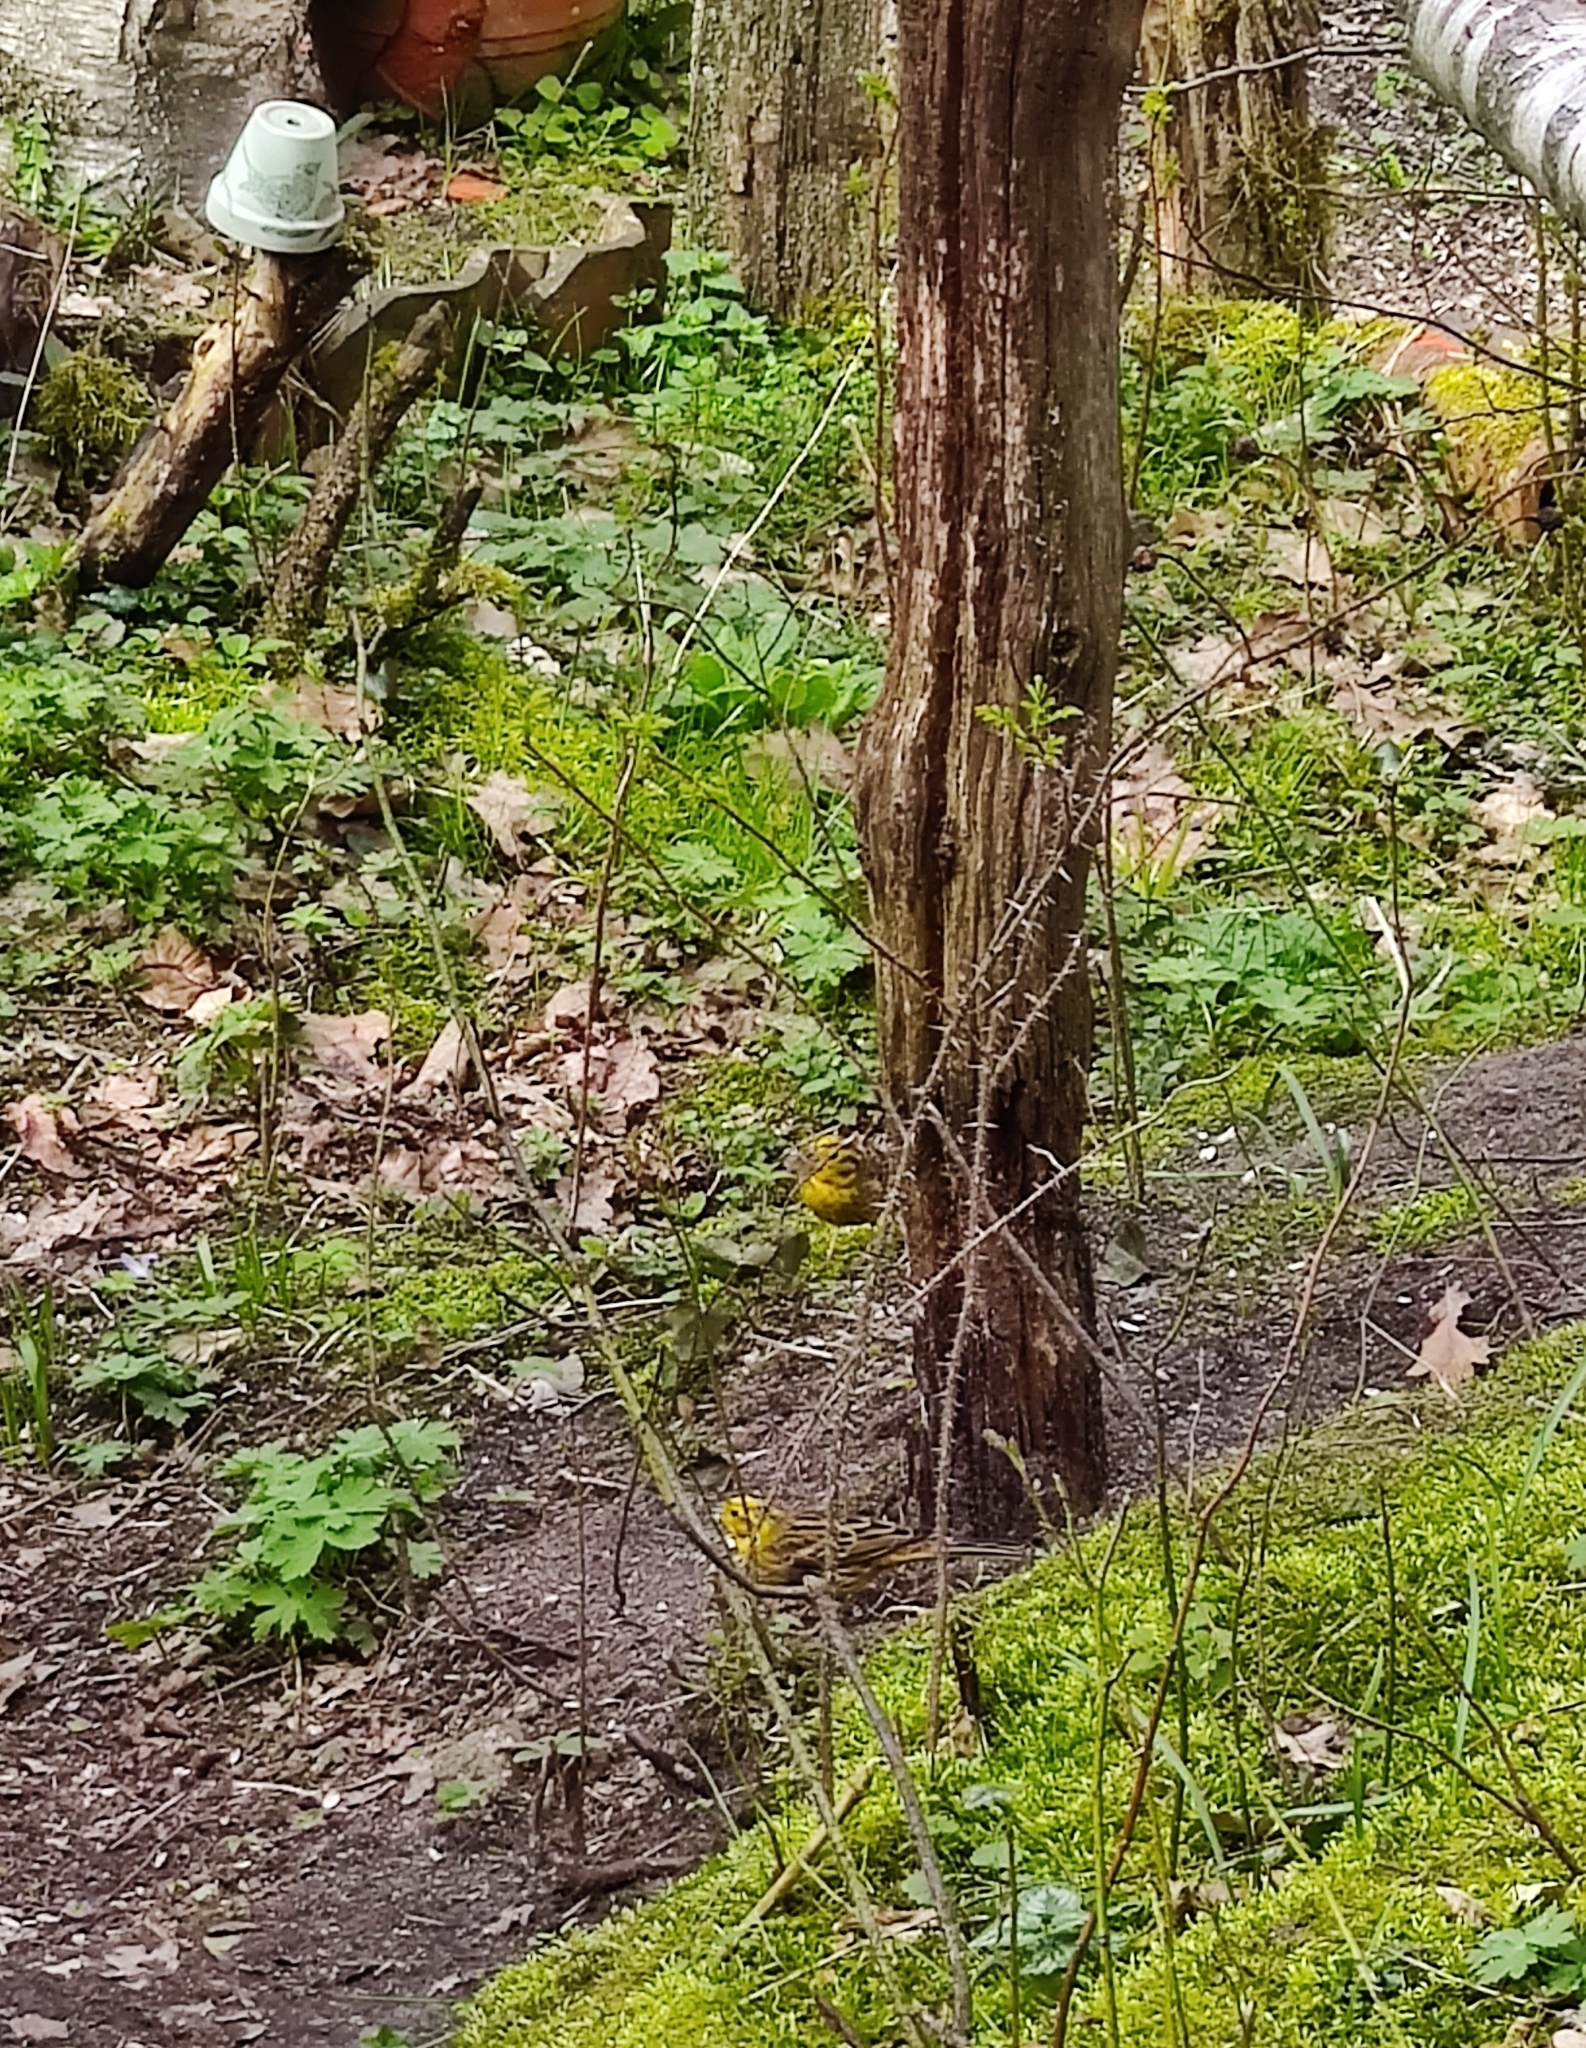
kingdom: Animalia
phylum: Chordata
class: Aves
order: Passeriformes
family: Emberizidae
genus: Emberiza
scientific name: Emberiza citrinella
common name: Yellowhammer
